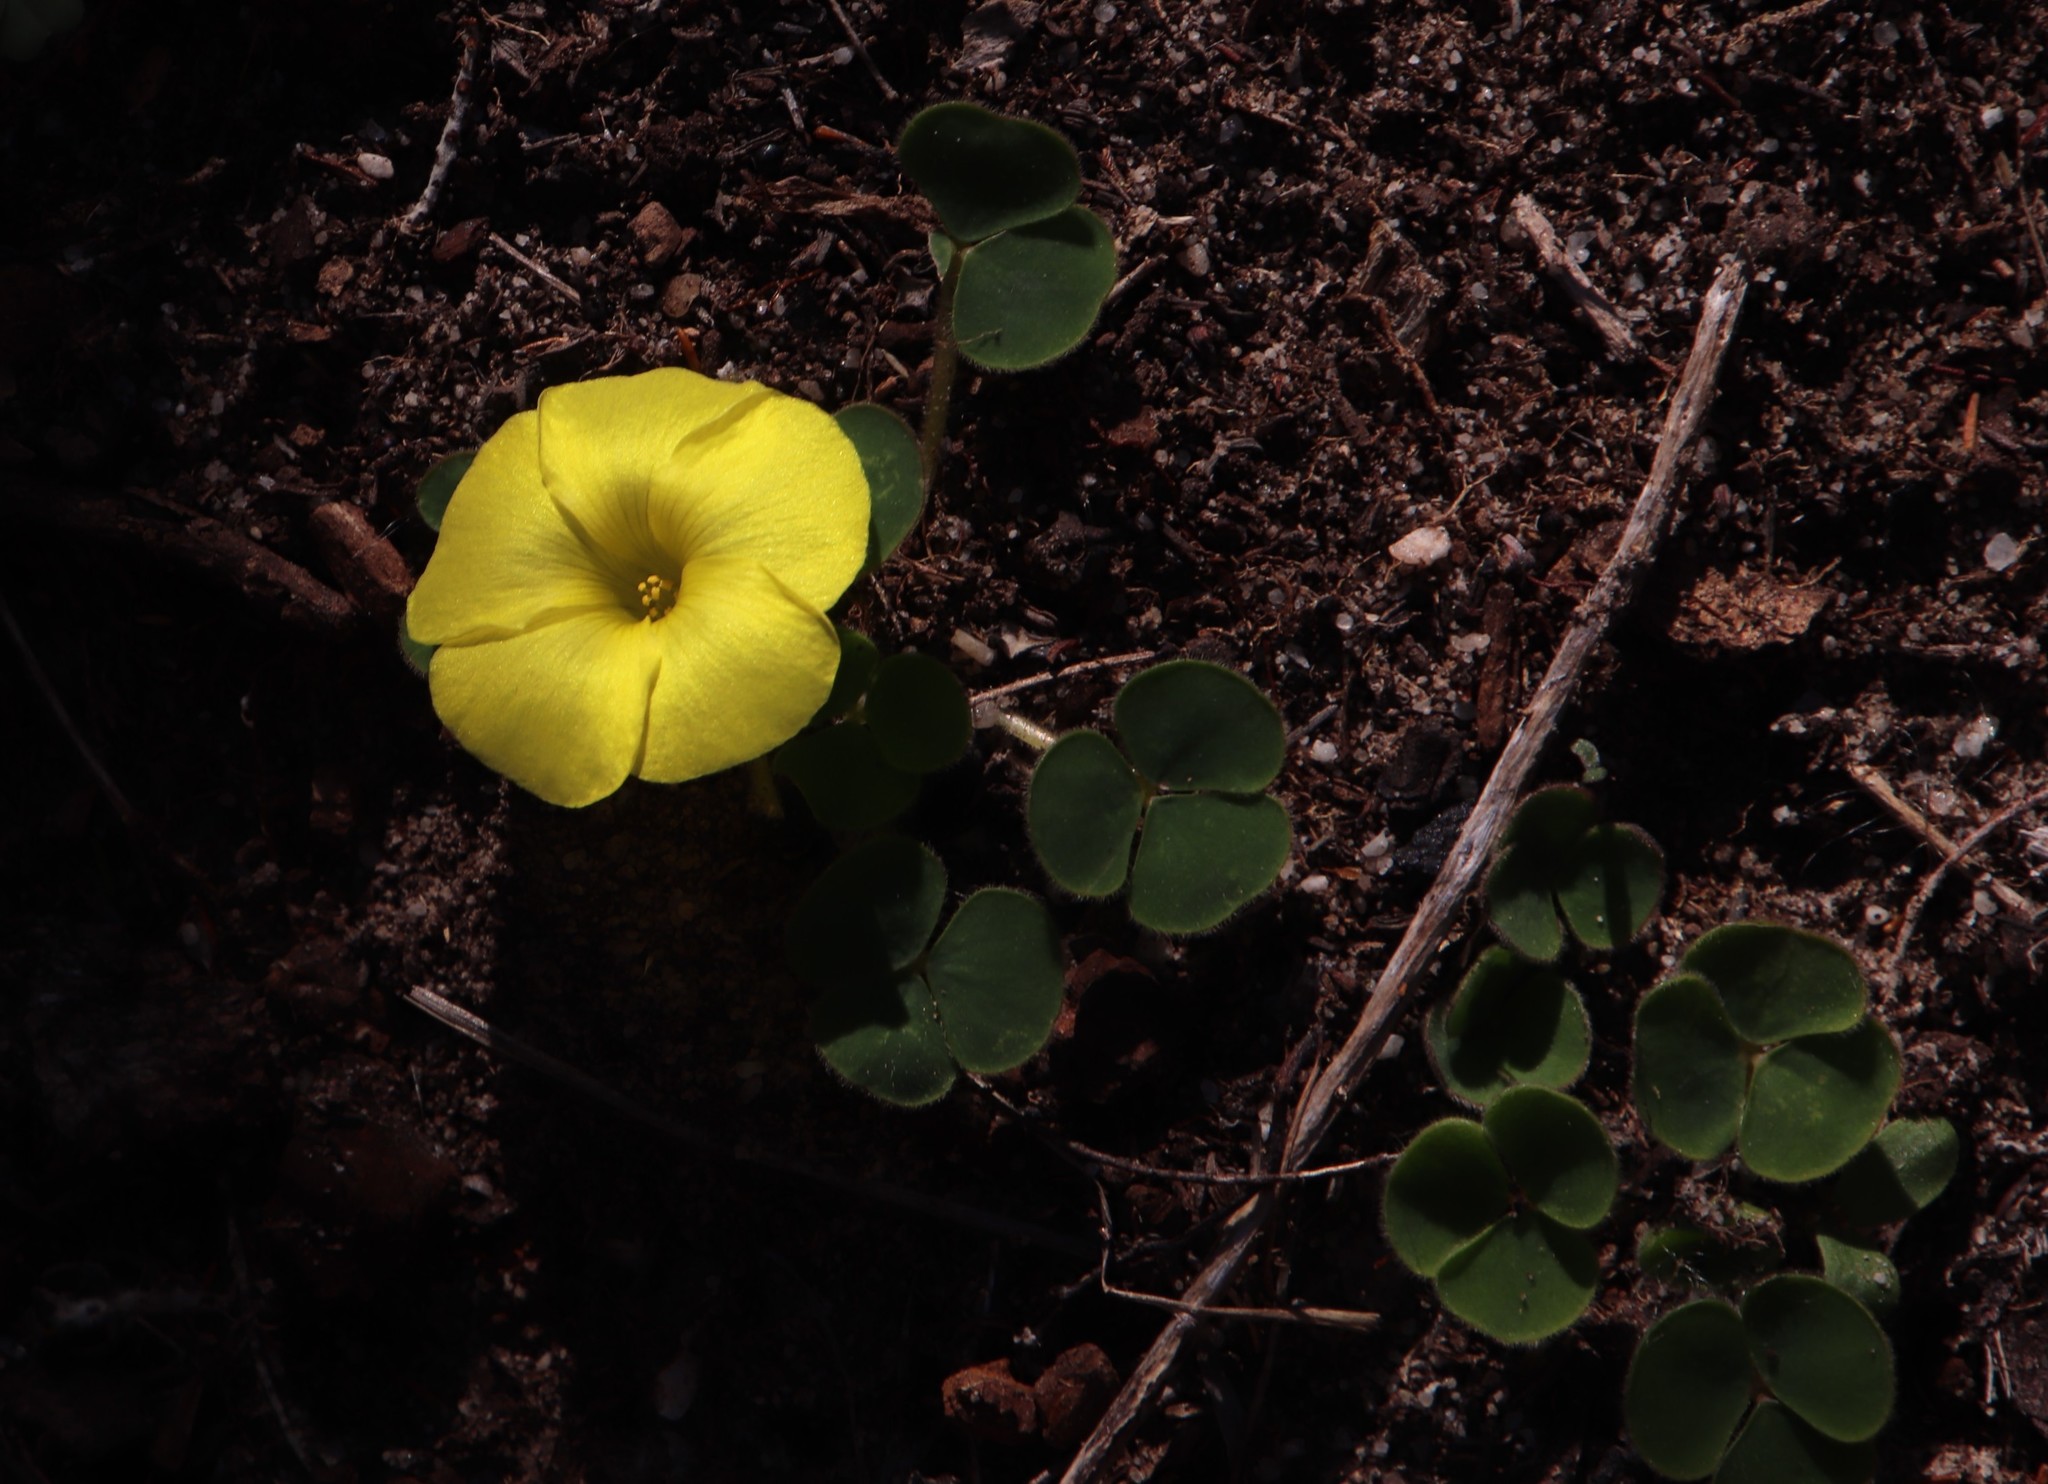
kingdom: Plantae
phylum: Tracheophyta
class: Magnoliopsida
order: Oxalidales
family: Oxalidaceae
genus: Oxalis
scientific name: Oxalis luteola
